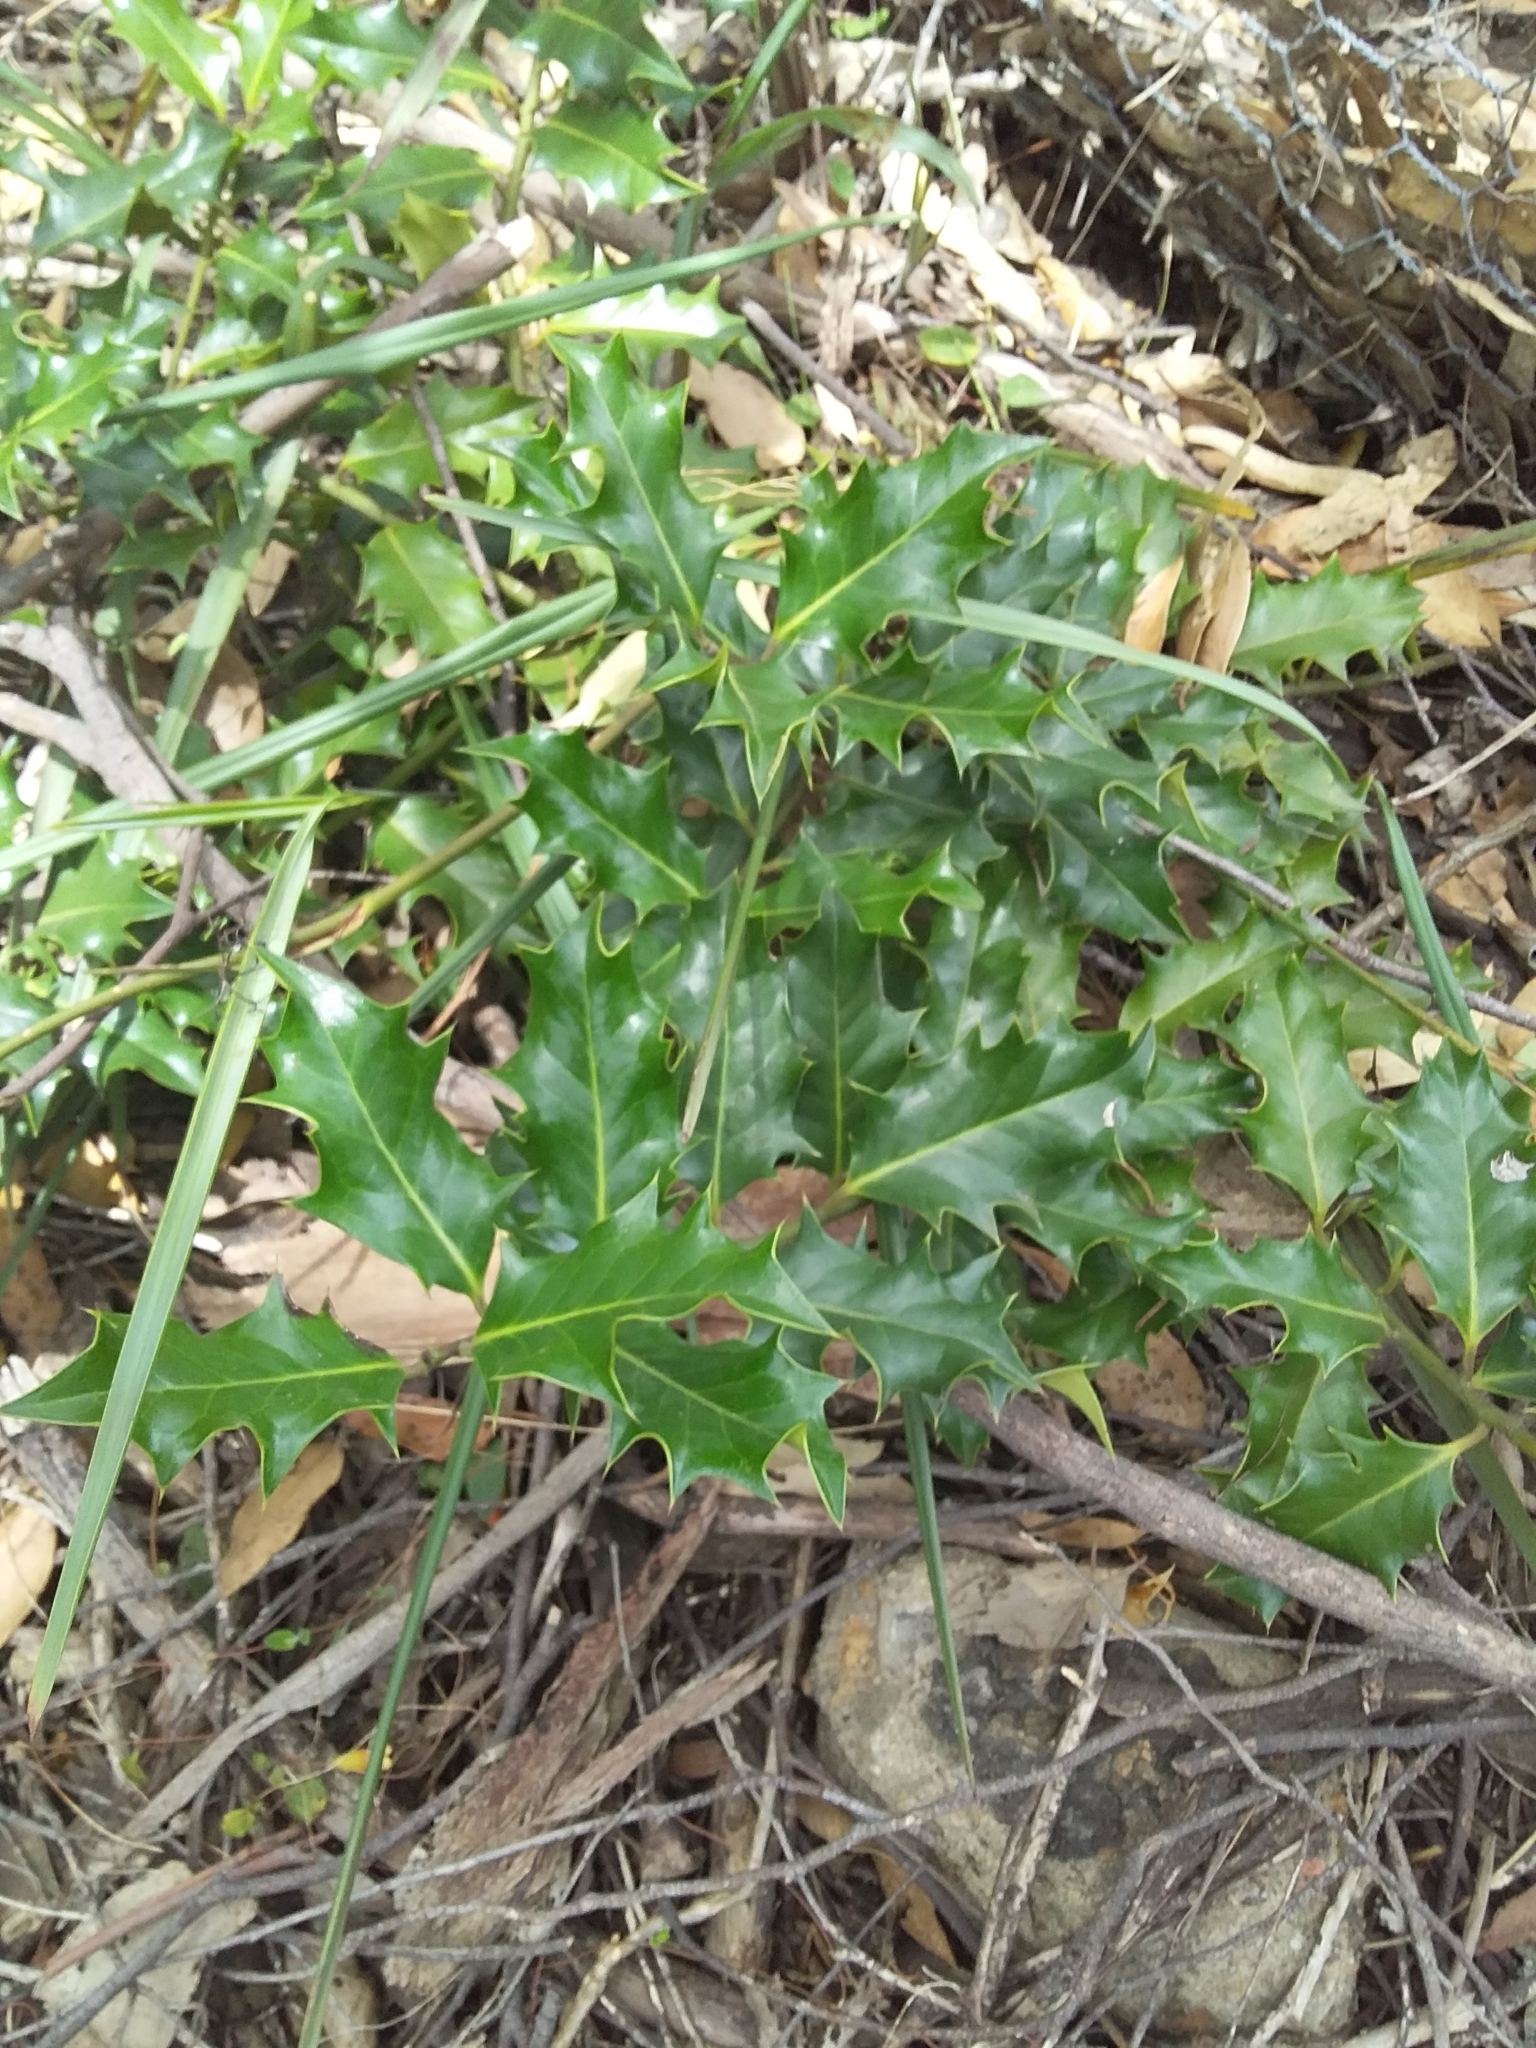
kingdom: Plantae
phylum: Tracheophyta
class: Magnoliopsida
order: Aquifoliales
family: Aquifoliaceae
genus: Ilex
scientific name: Ilex aquifolium
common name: English holly
